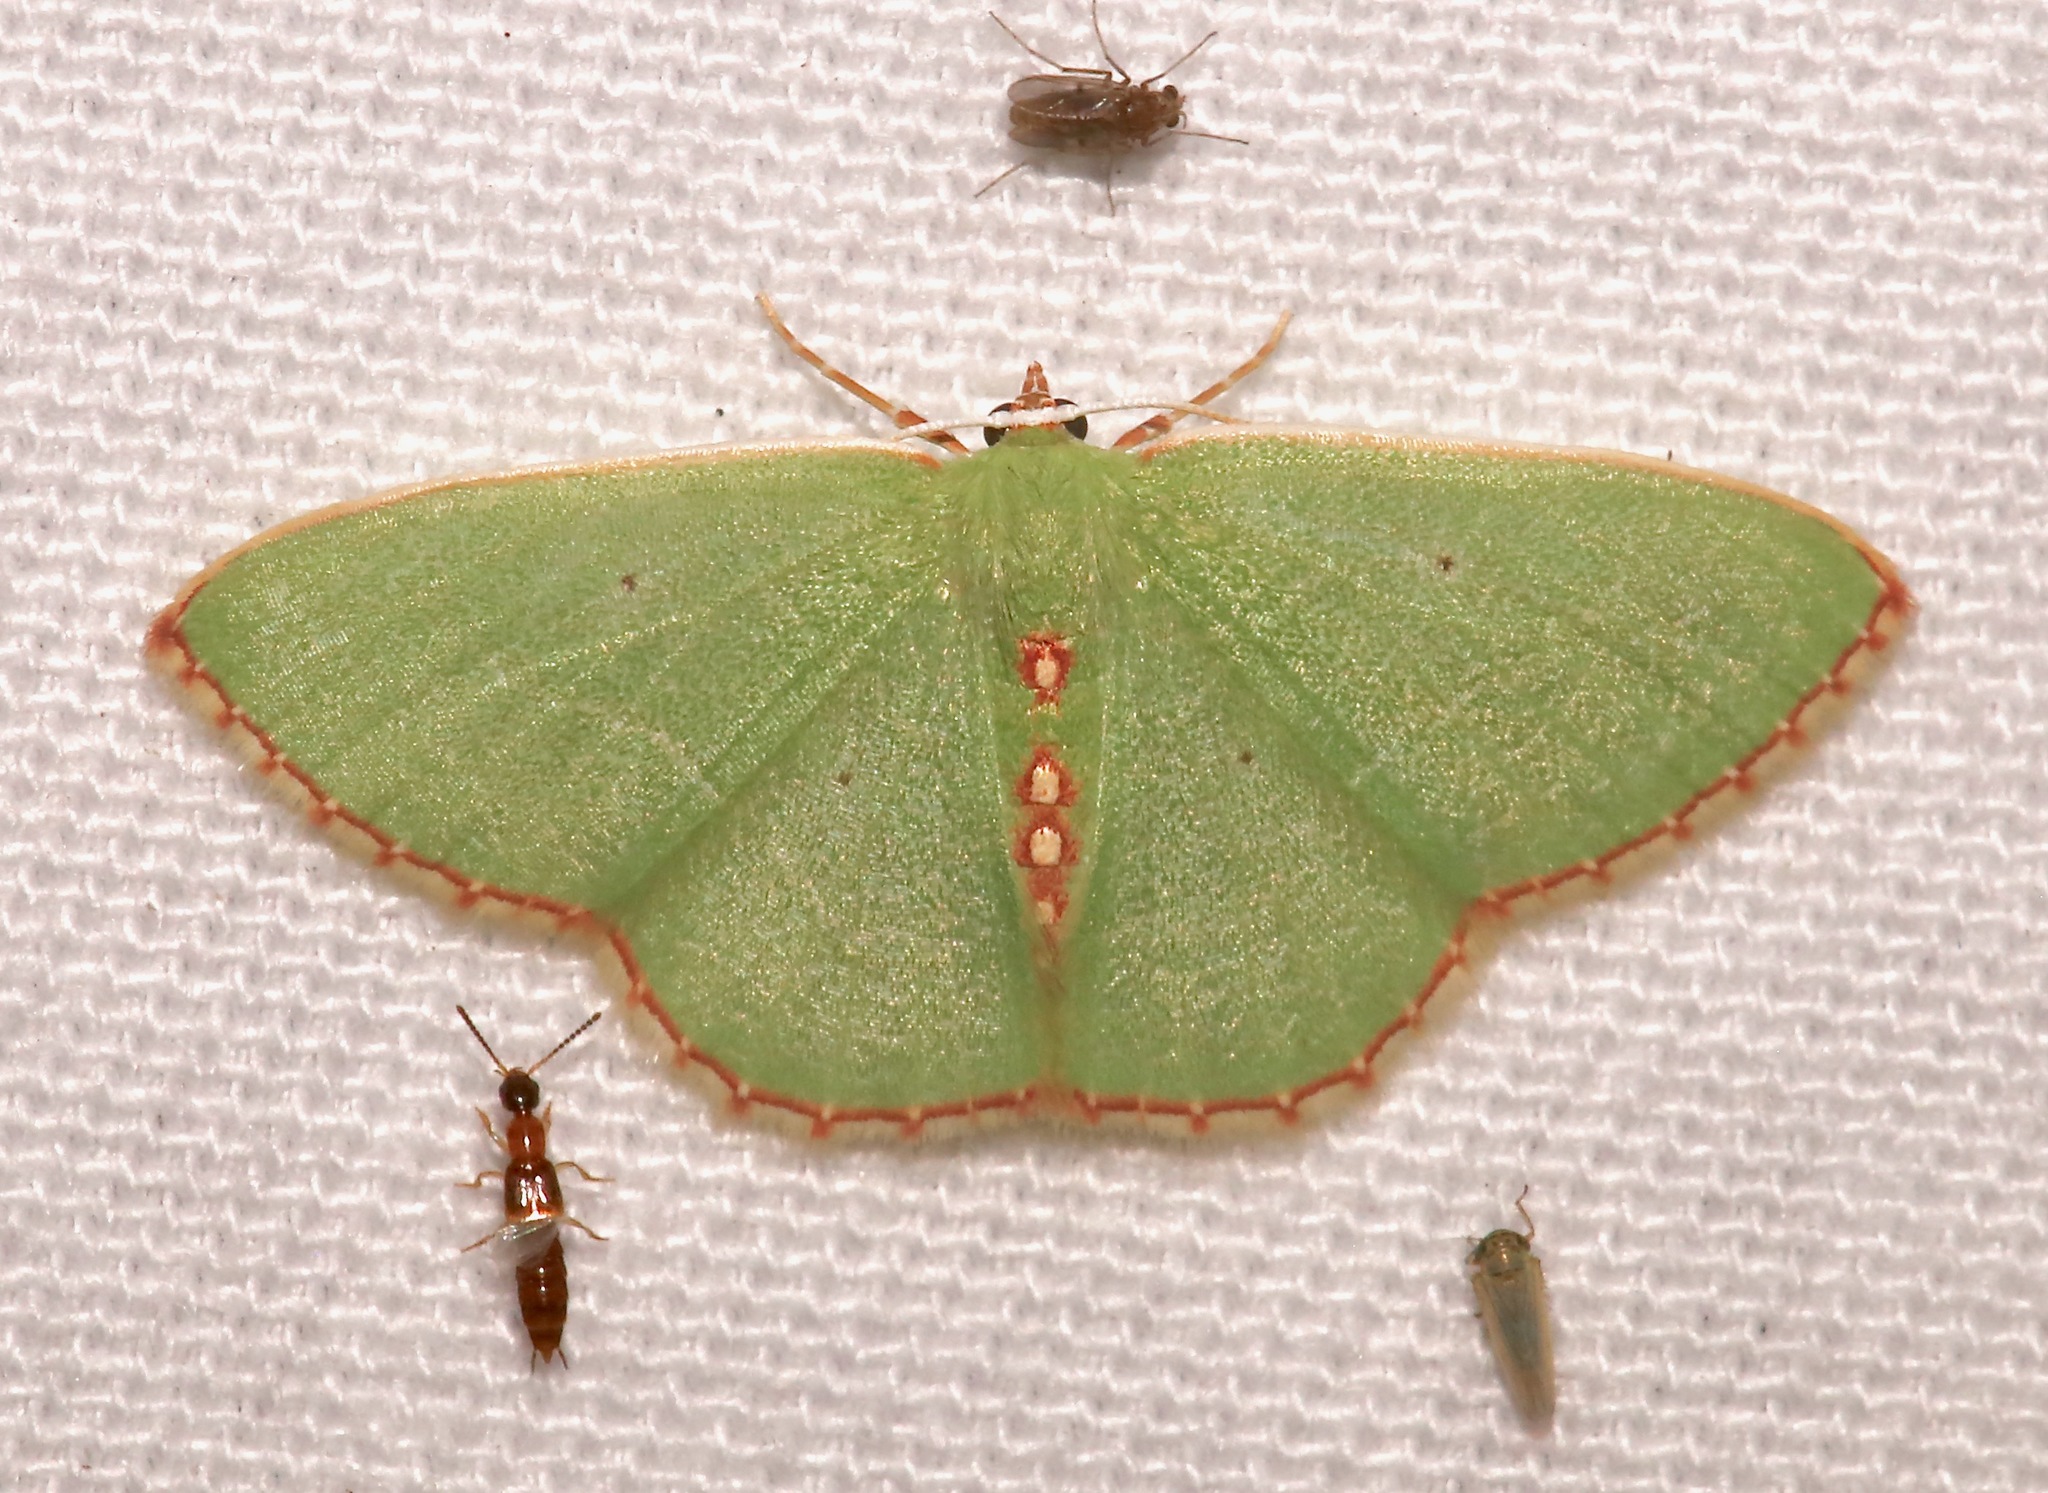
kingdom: Animalia
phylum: Arthropoda
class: Insecta
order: Lepidoptera
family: Geometridae
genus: Nemoria
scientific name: Nemoria lixaria
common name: Red-bordered emerald
